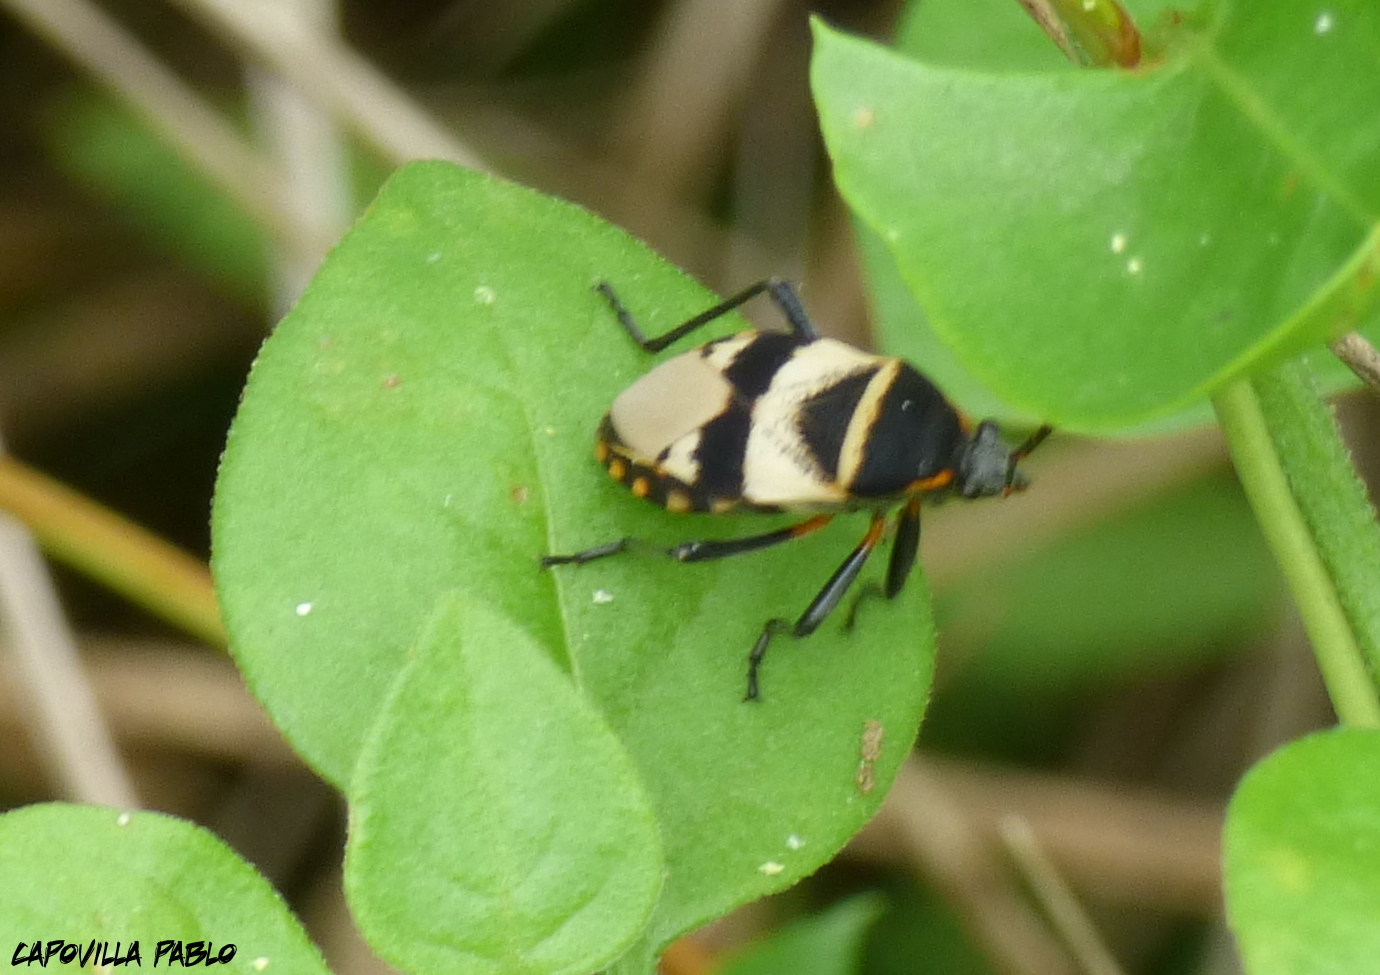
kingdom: Animalia
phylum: Arthropoda
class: Insecta
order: Hemiptera
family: Largidae
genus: Largus
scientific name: Largus fasciatus
